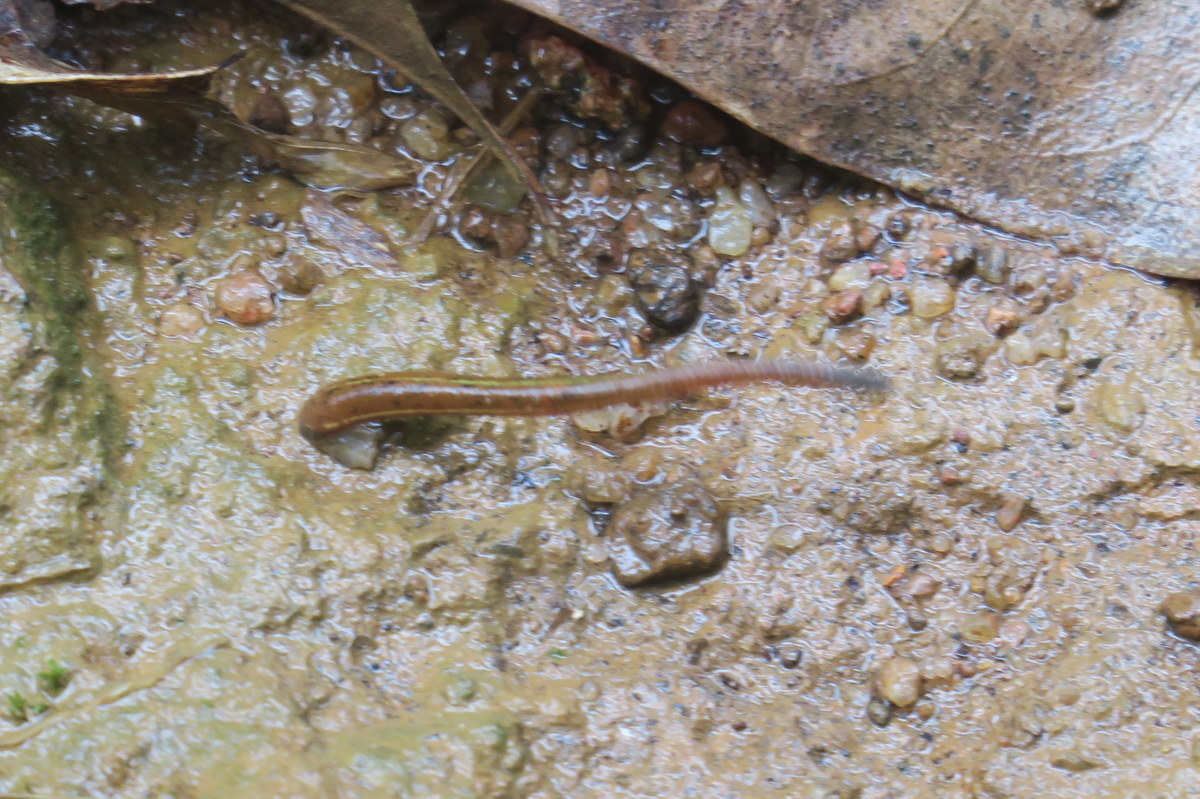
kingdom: Animalia
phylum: Annelida
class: Clitellata
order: Arhynchobdellida
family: Haemadipsidae
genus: Haemadipsa
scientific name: Haemadipsa zeylanica
